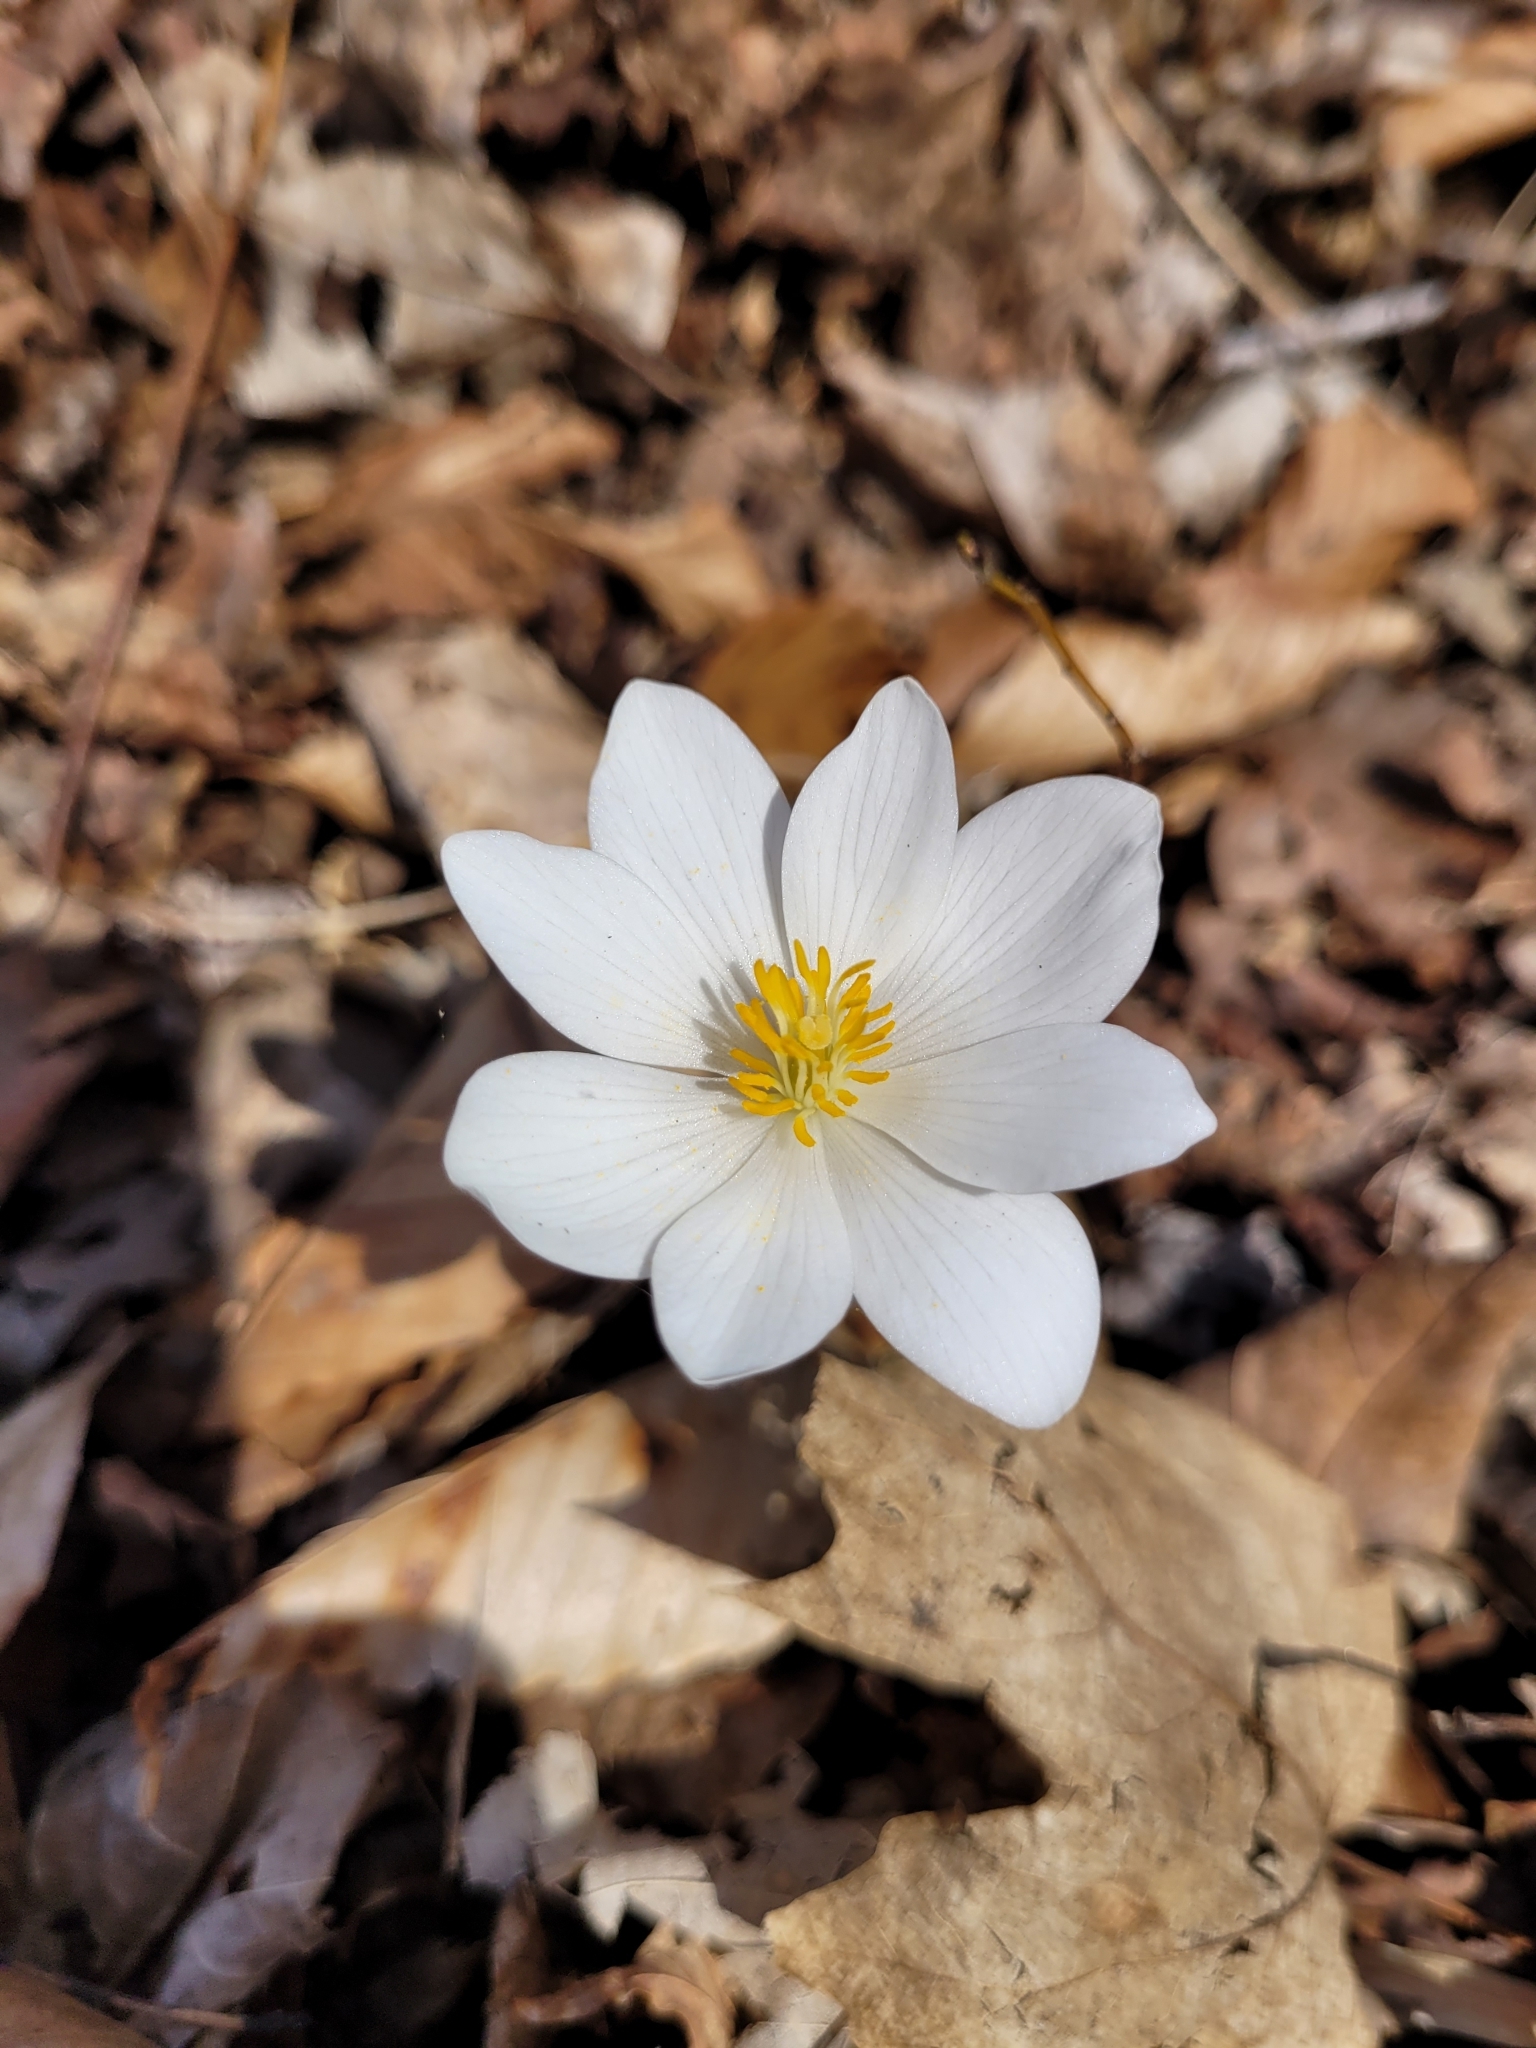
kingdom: Plantae
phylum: Tracheophyta
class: Magnoliopsida
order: Ranunculales
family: Papaveraceae
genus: Sanguinaria
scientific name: Sanguinaria canadensis
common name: Bloodroot
